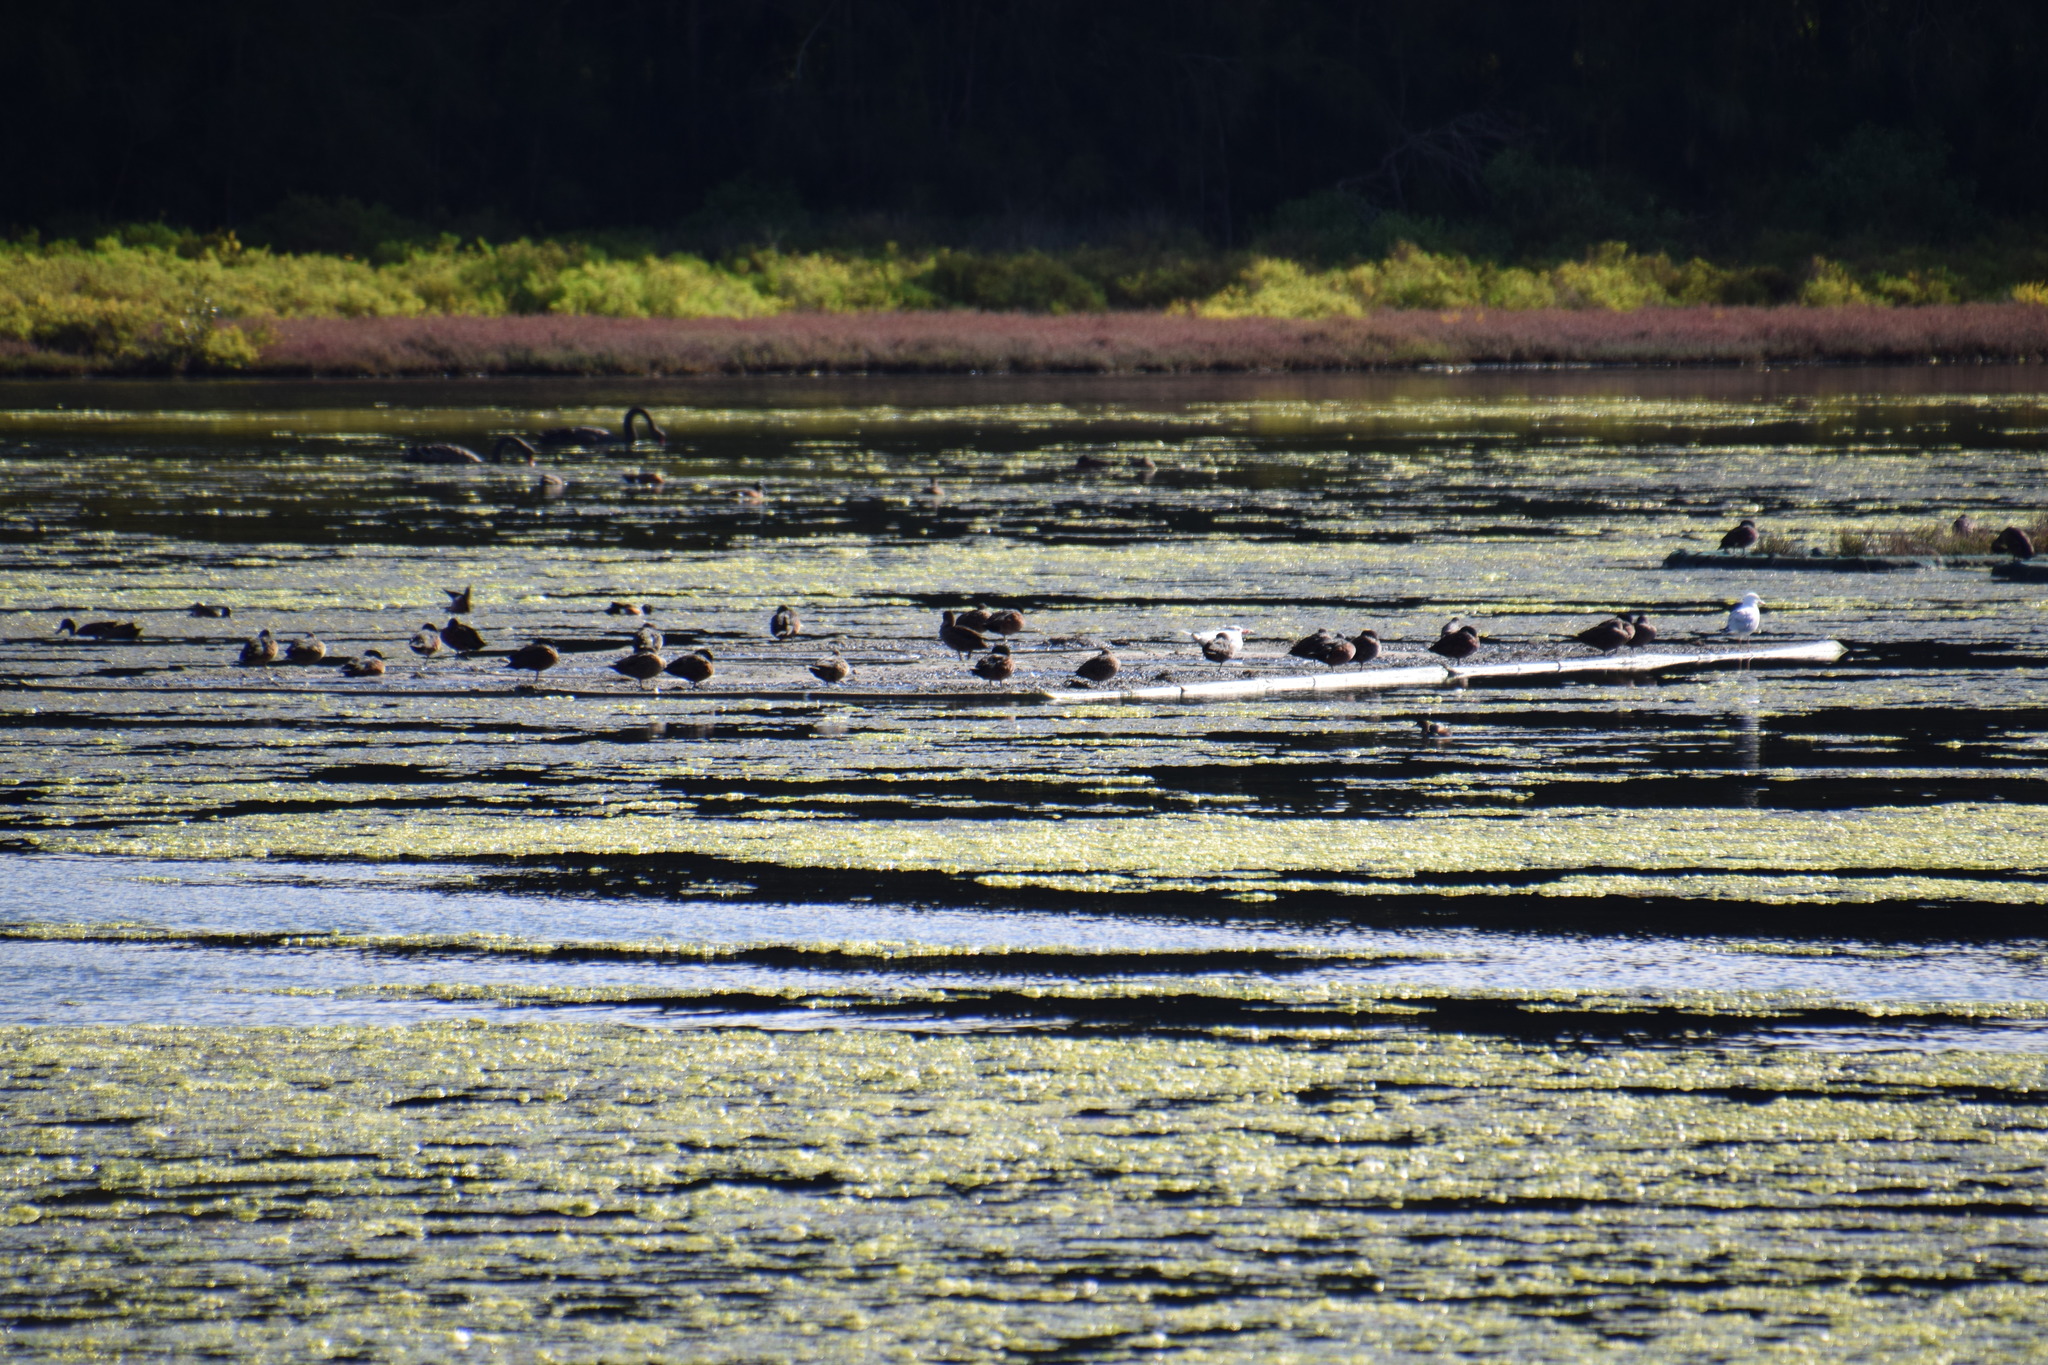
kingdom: Animalia
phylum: Chordata
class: Aves
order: Charadriiformes
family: Laridae
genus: Hydroprogne
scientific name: Hydroprogne caspia
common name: Caspian tern
